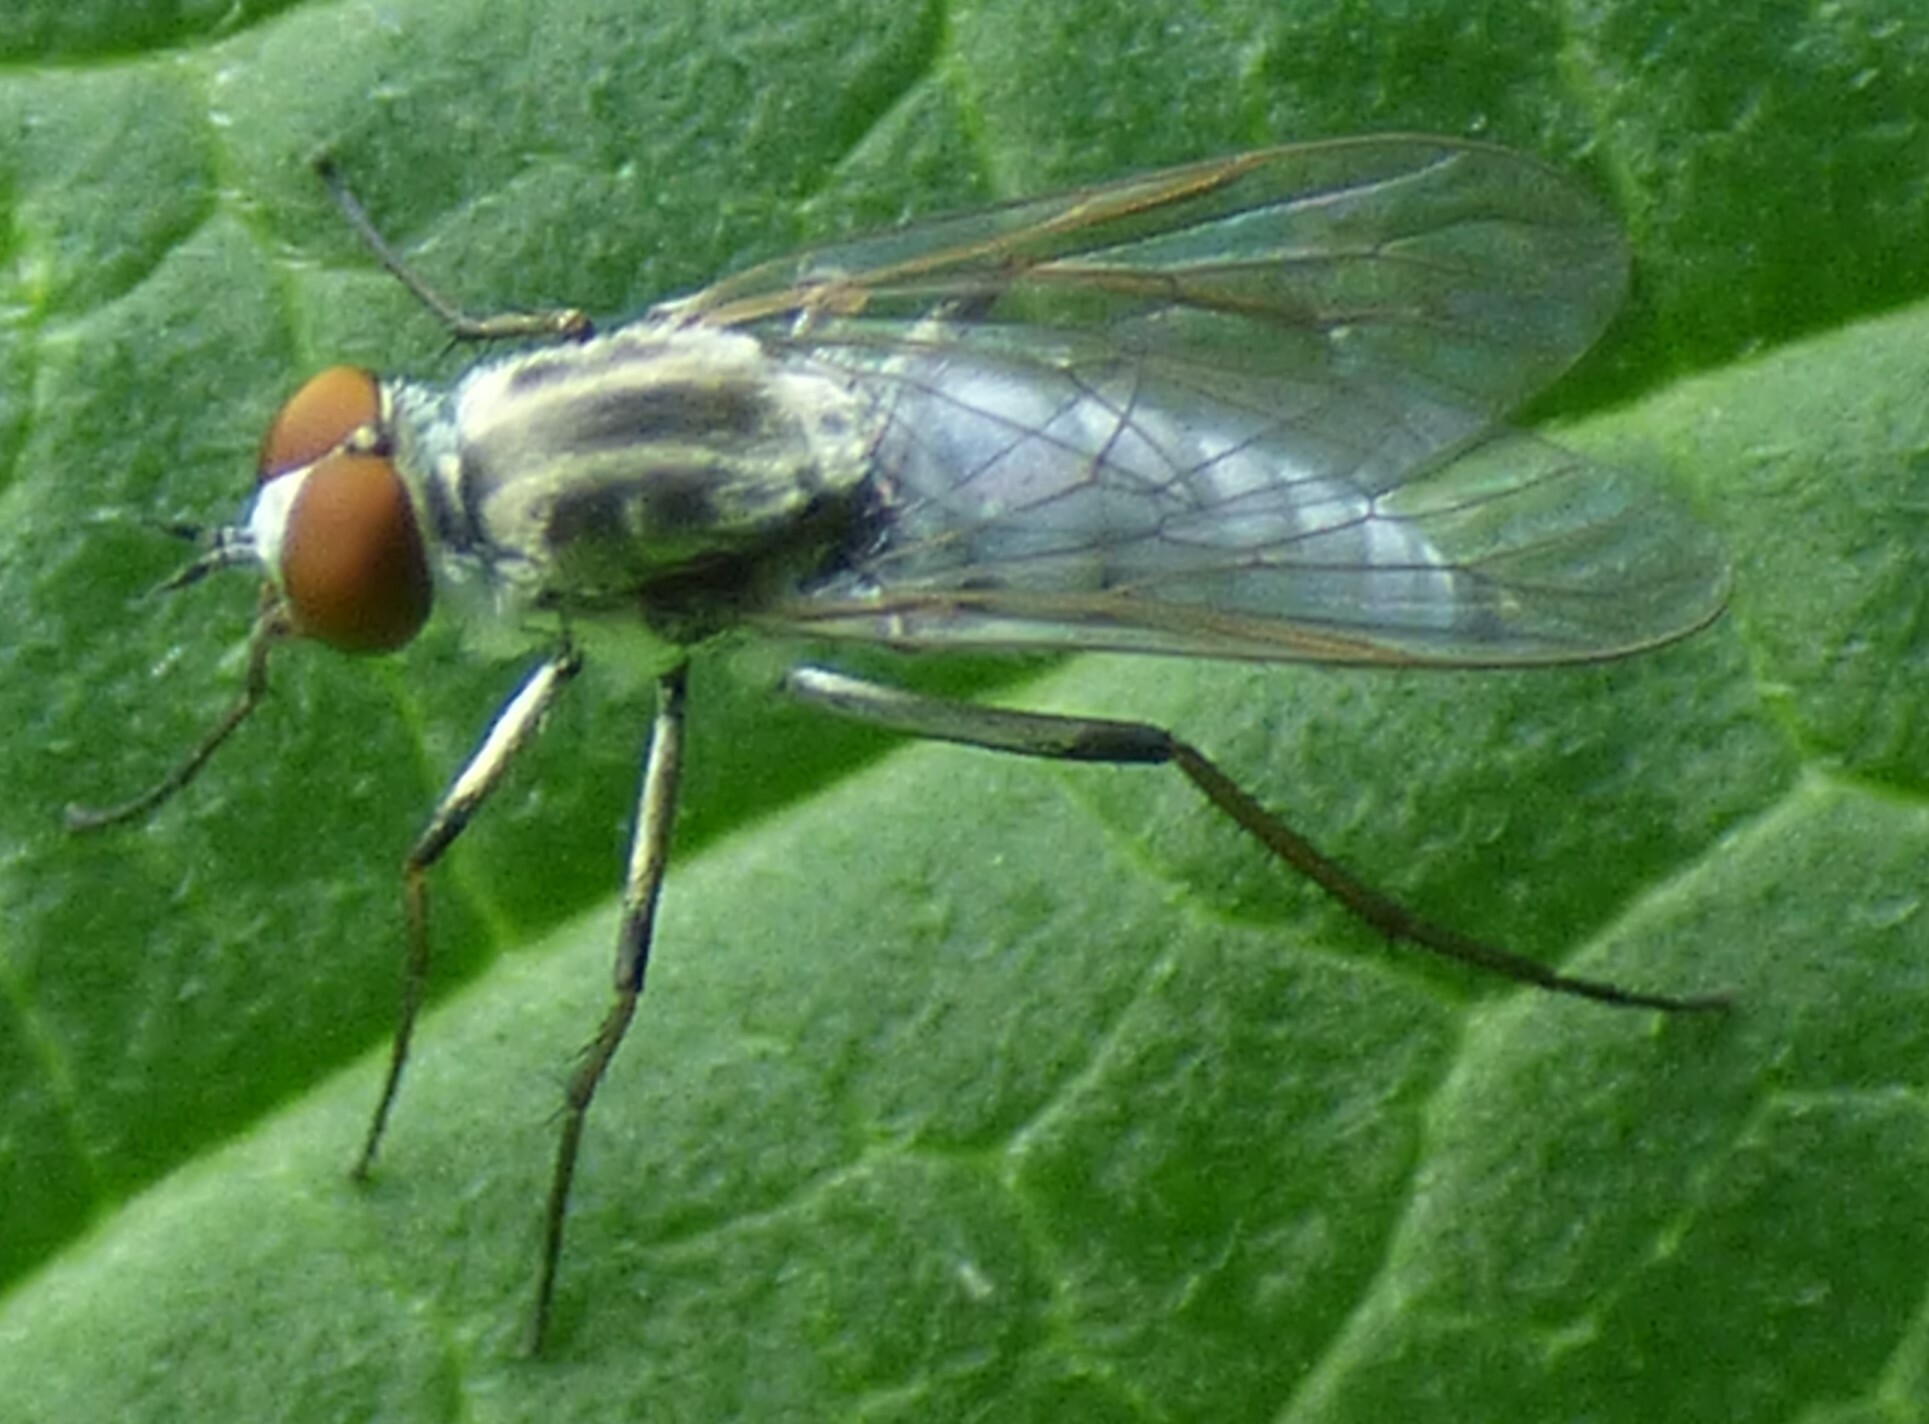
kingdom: Animalia
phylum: Arthropoda
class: Insecta
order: Diptera
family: Therevidae
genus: Penniverpa
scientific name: Penniverpa festina
